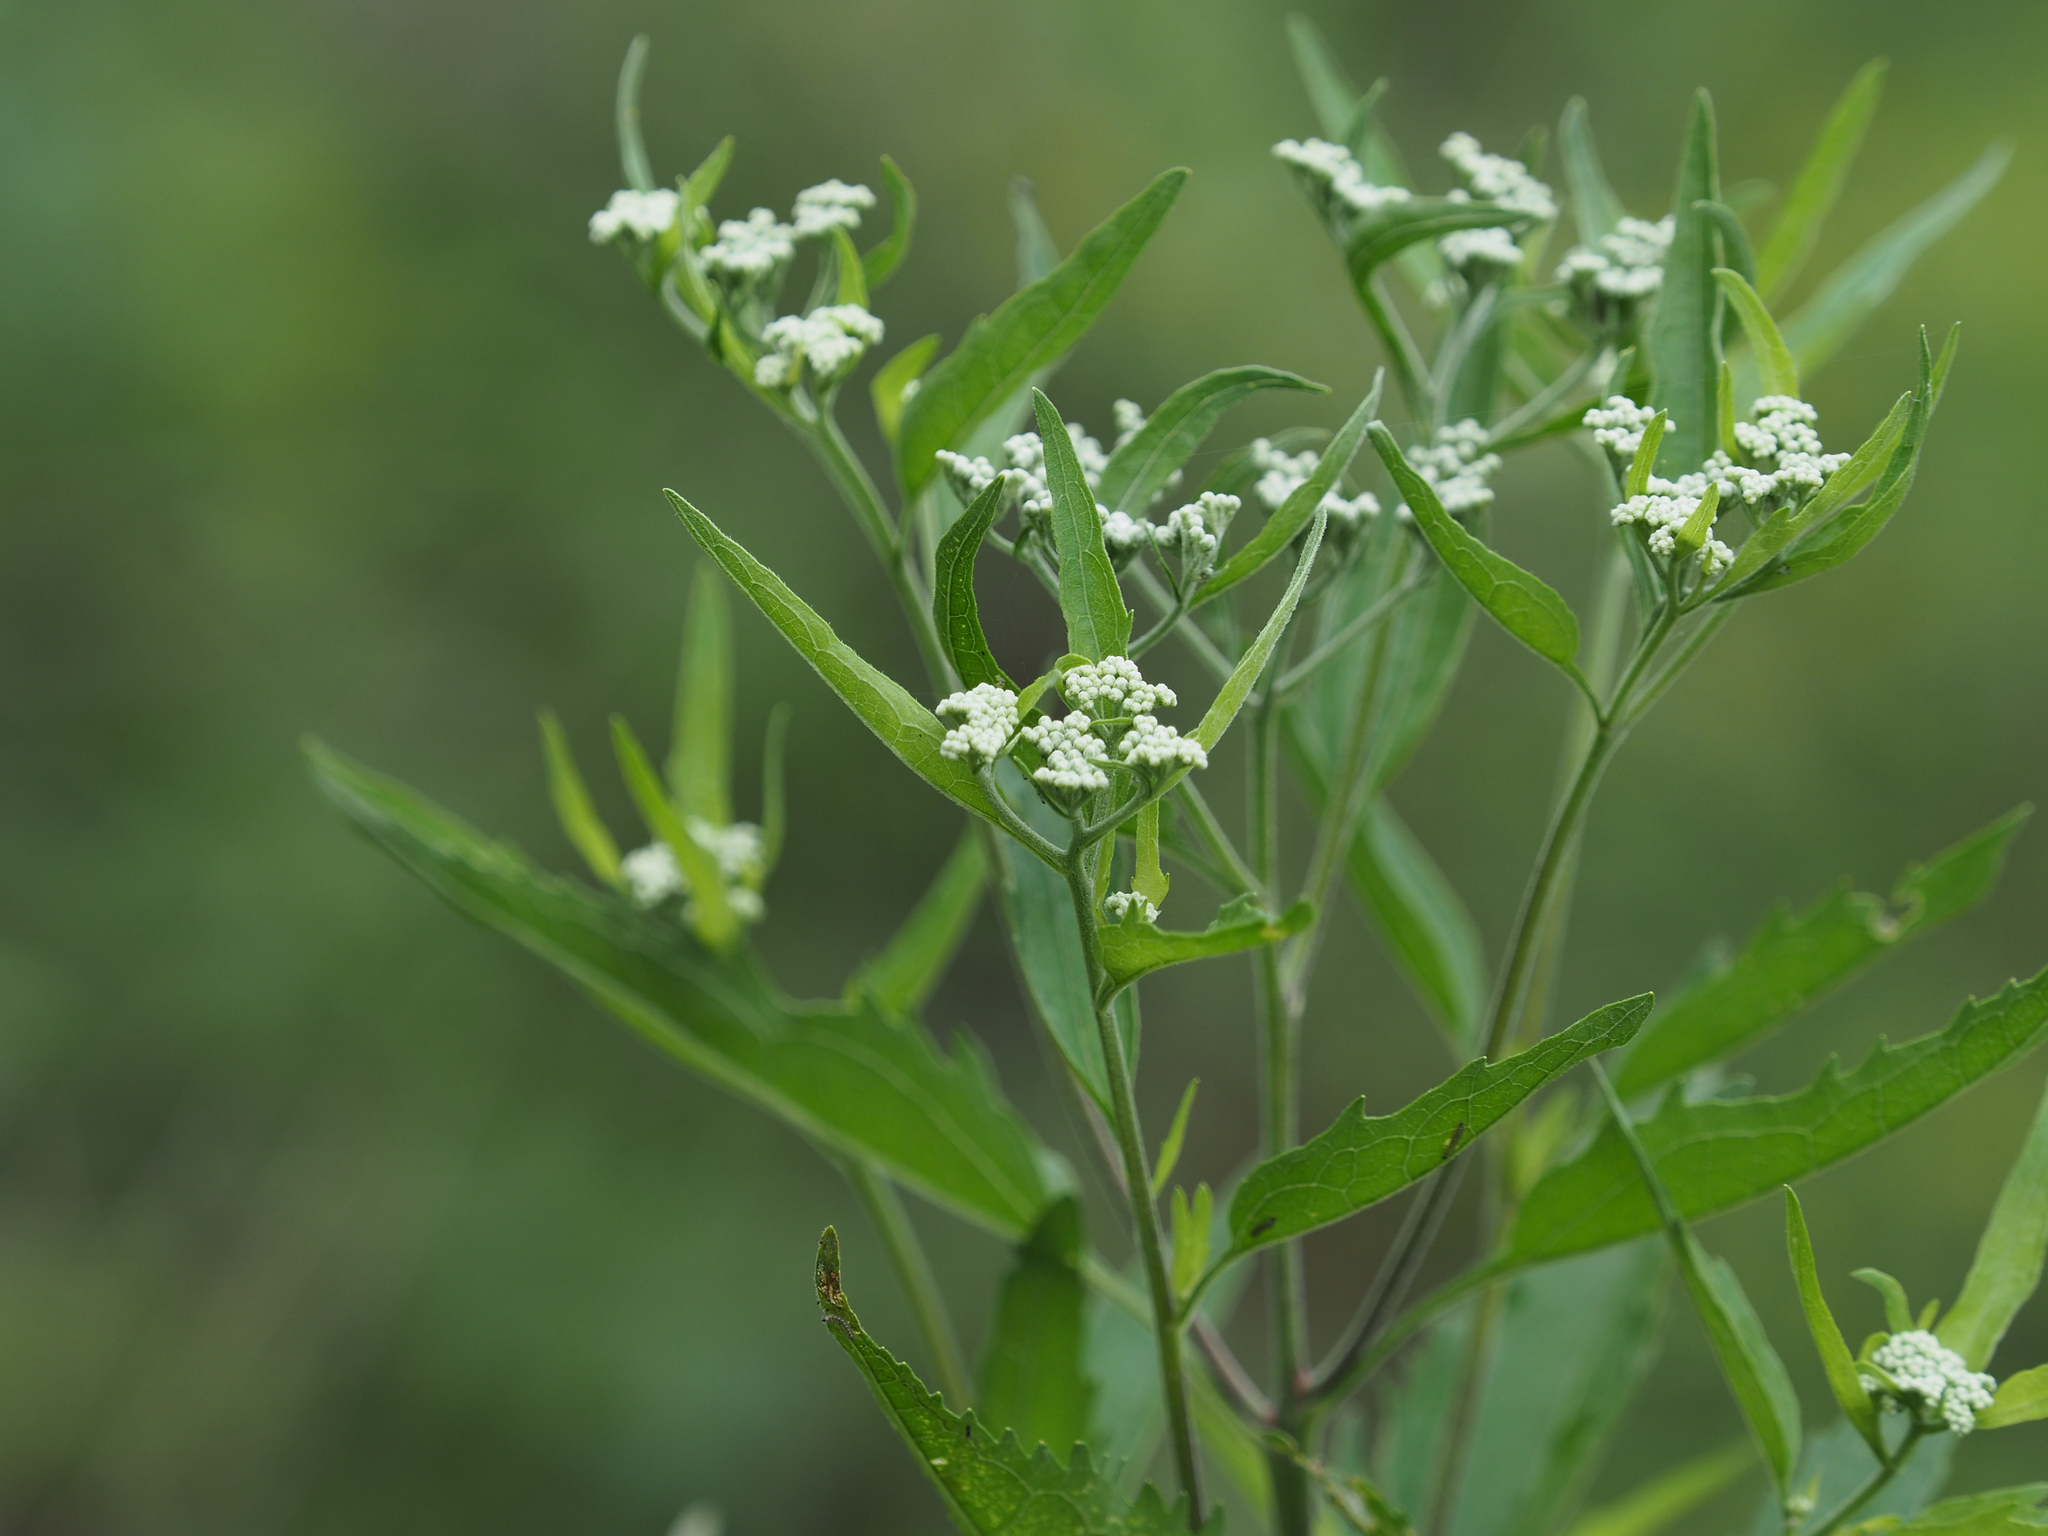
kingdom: Plantae
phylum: Tracheophyta
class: Magnoliopsida
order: Asterales
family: Asteraceae
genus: Eupatorium
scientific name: Eupatorium serotinum
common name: Late boneset
